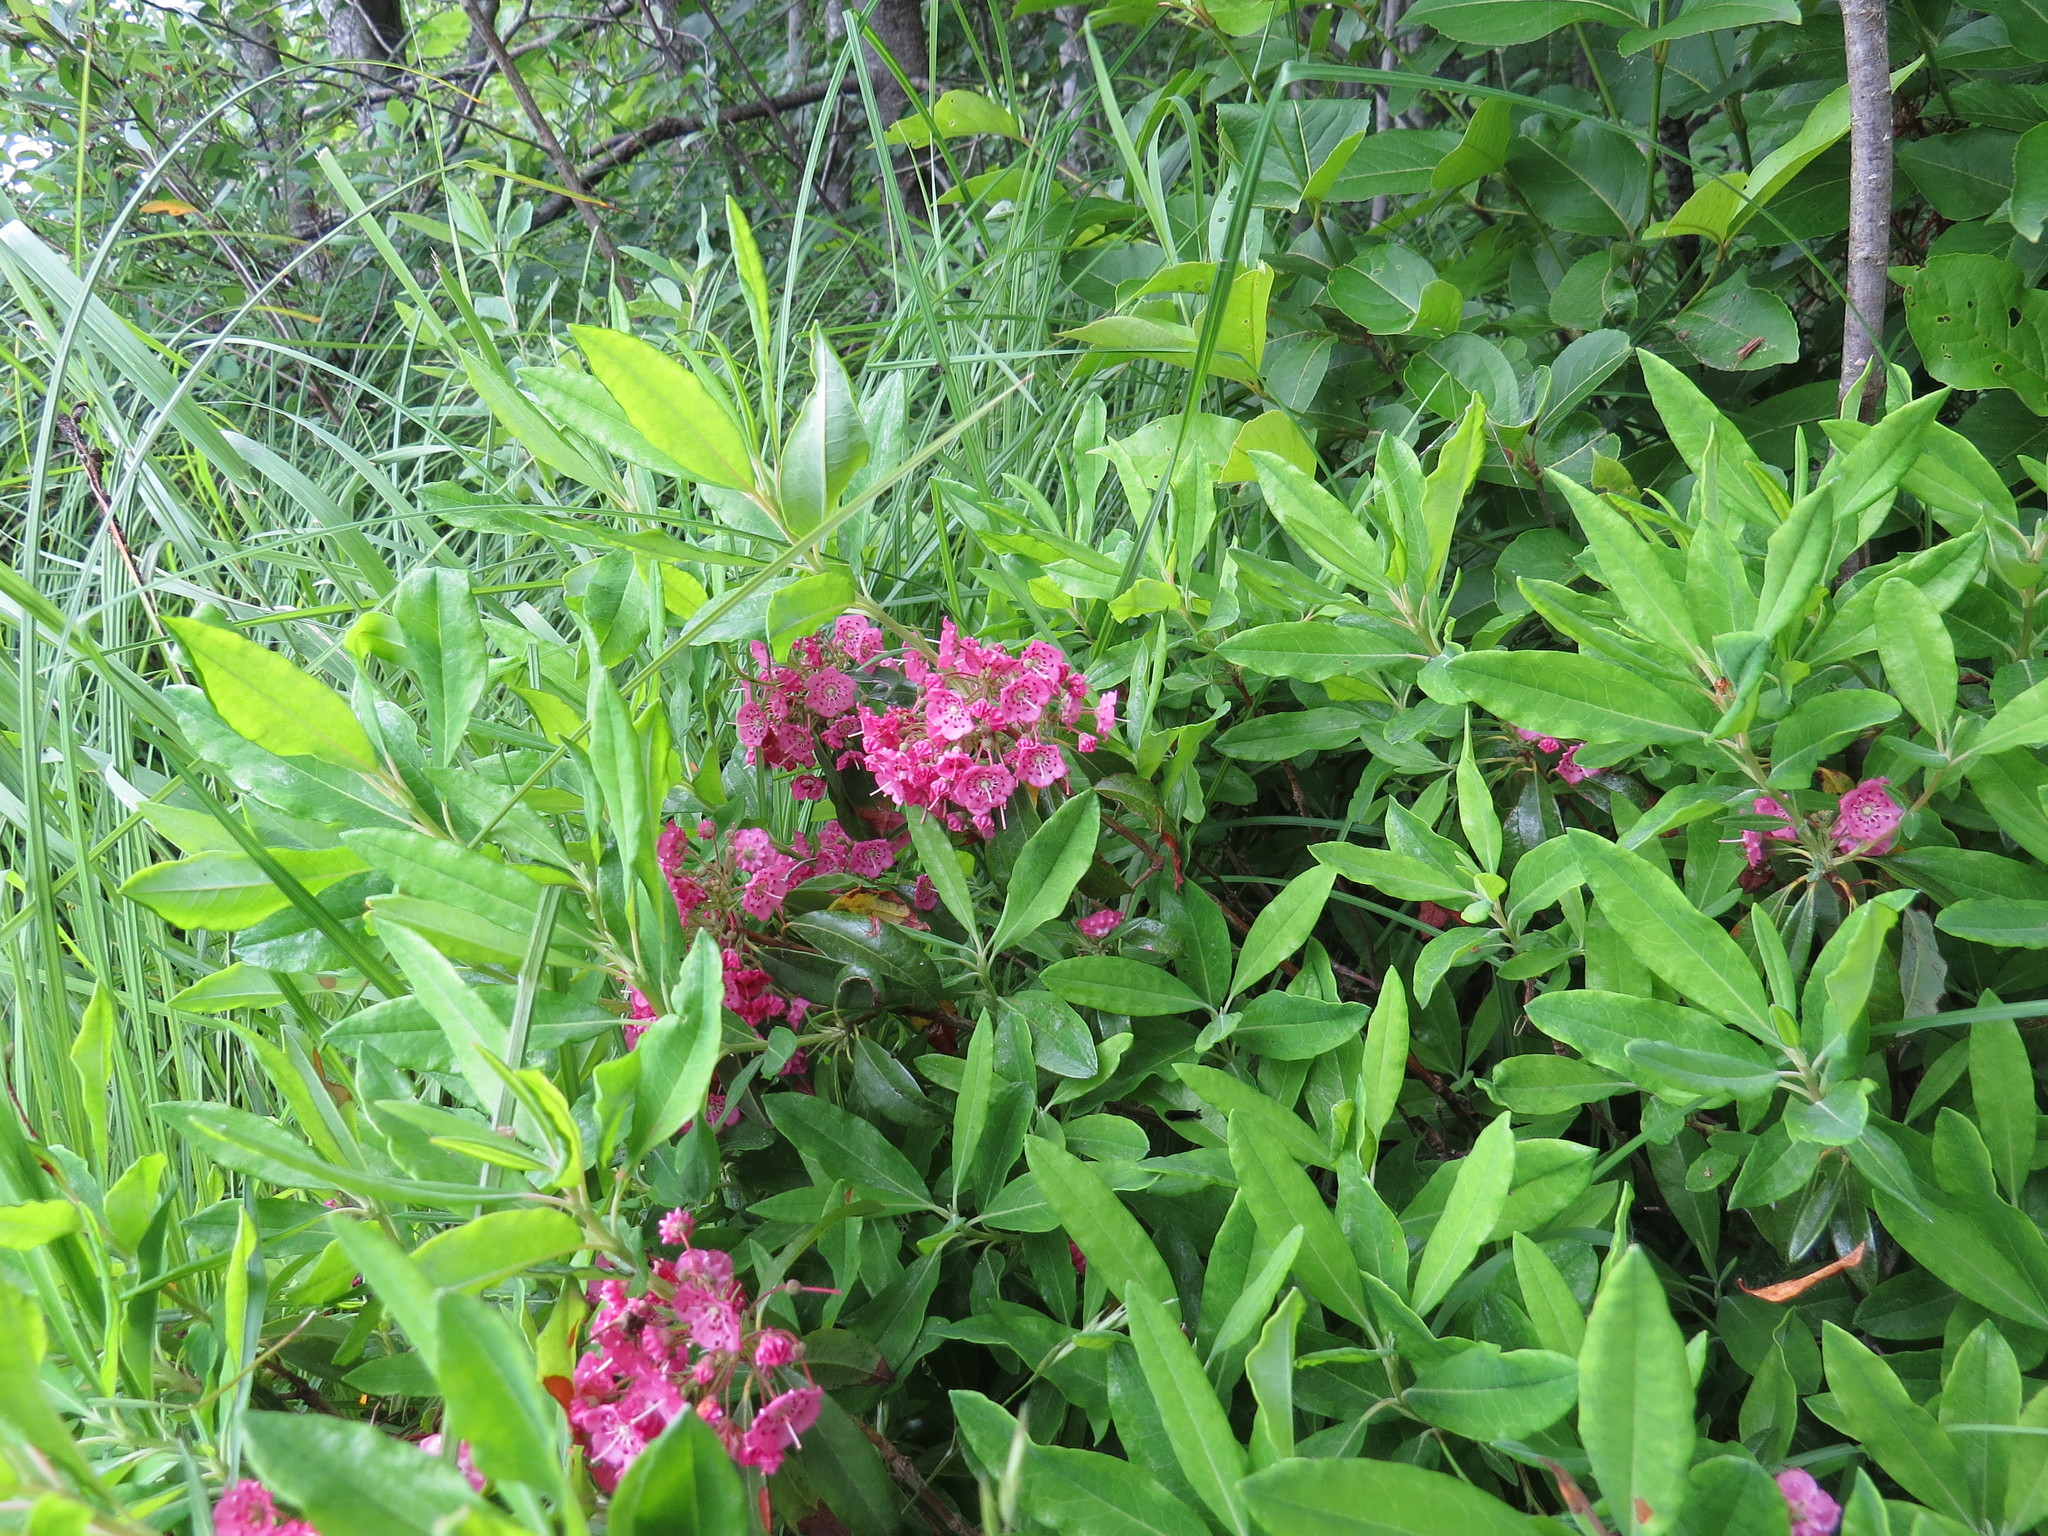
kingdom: Plantae
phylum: Tracheophyta
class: Magnoliopsida
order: Ericales
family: Ericaceae
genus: Kalmia
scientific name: Kalmia angustifolia
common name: Sheep-laurel
